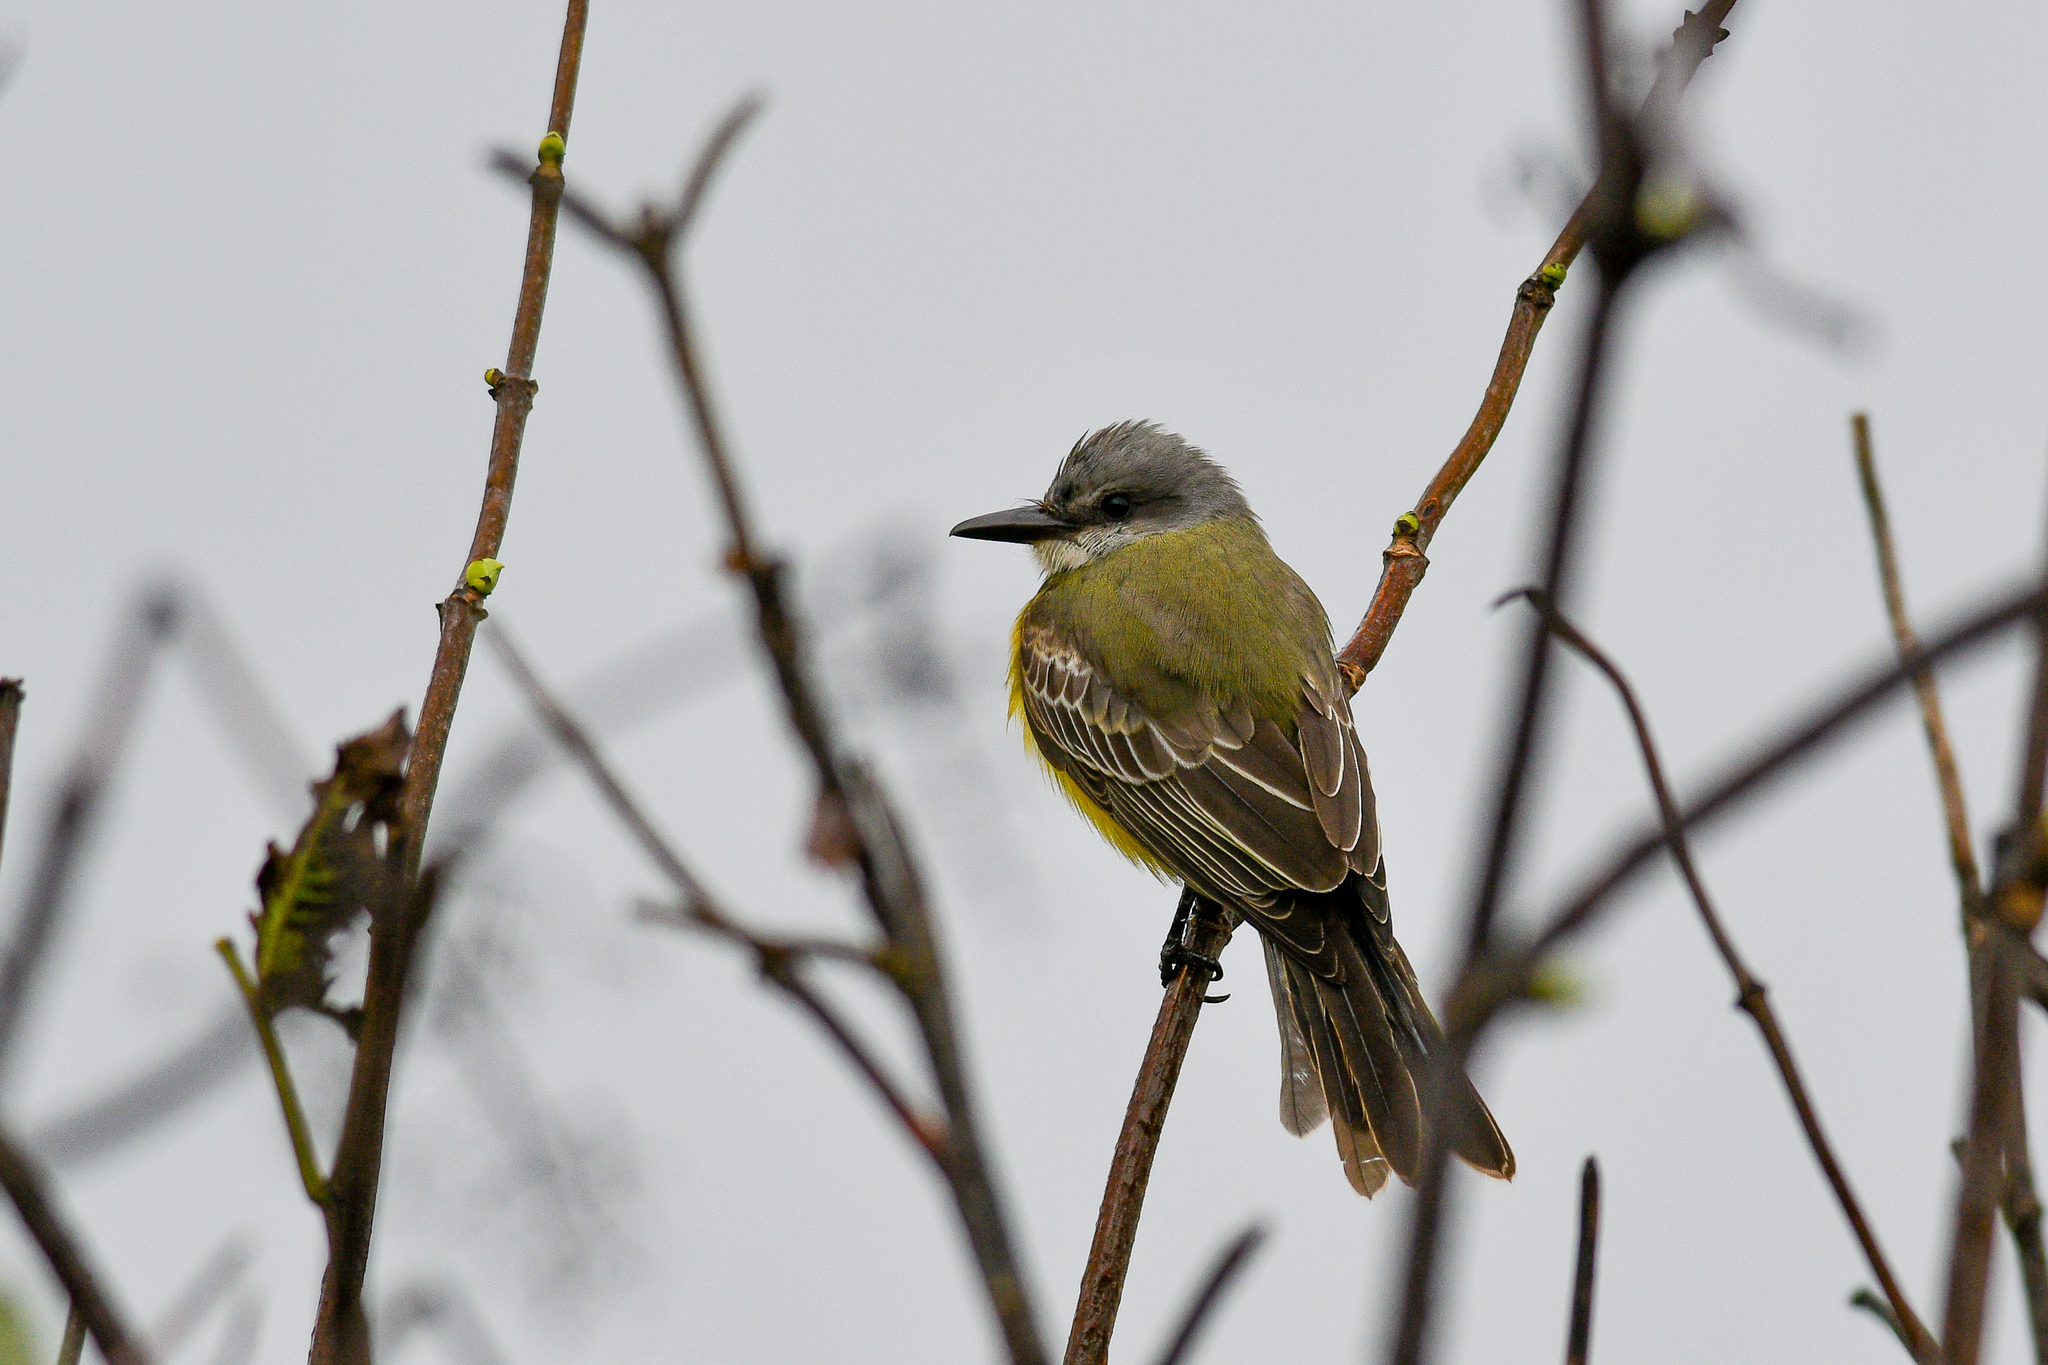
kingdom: Animalia
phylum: Chordata
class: Aves
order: Passeriformes
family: Tyrannidae
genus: Tyrannus
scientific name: Tyrannus melancholicus
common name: Tropical kingbird
